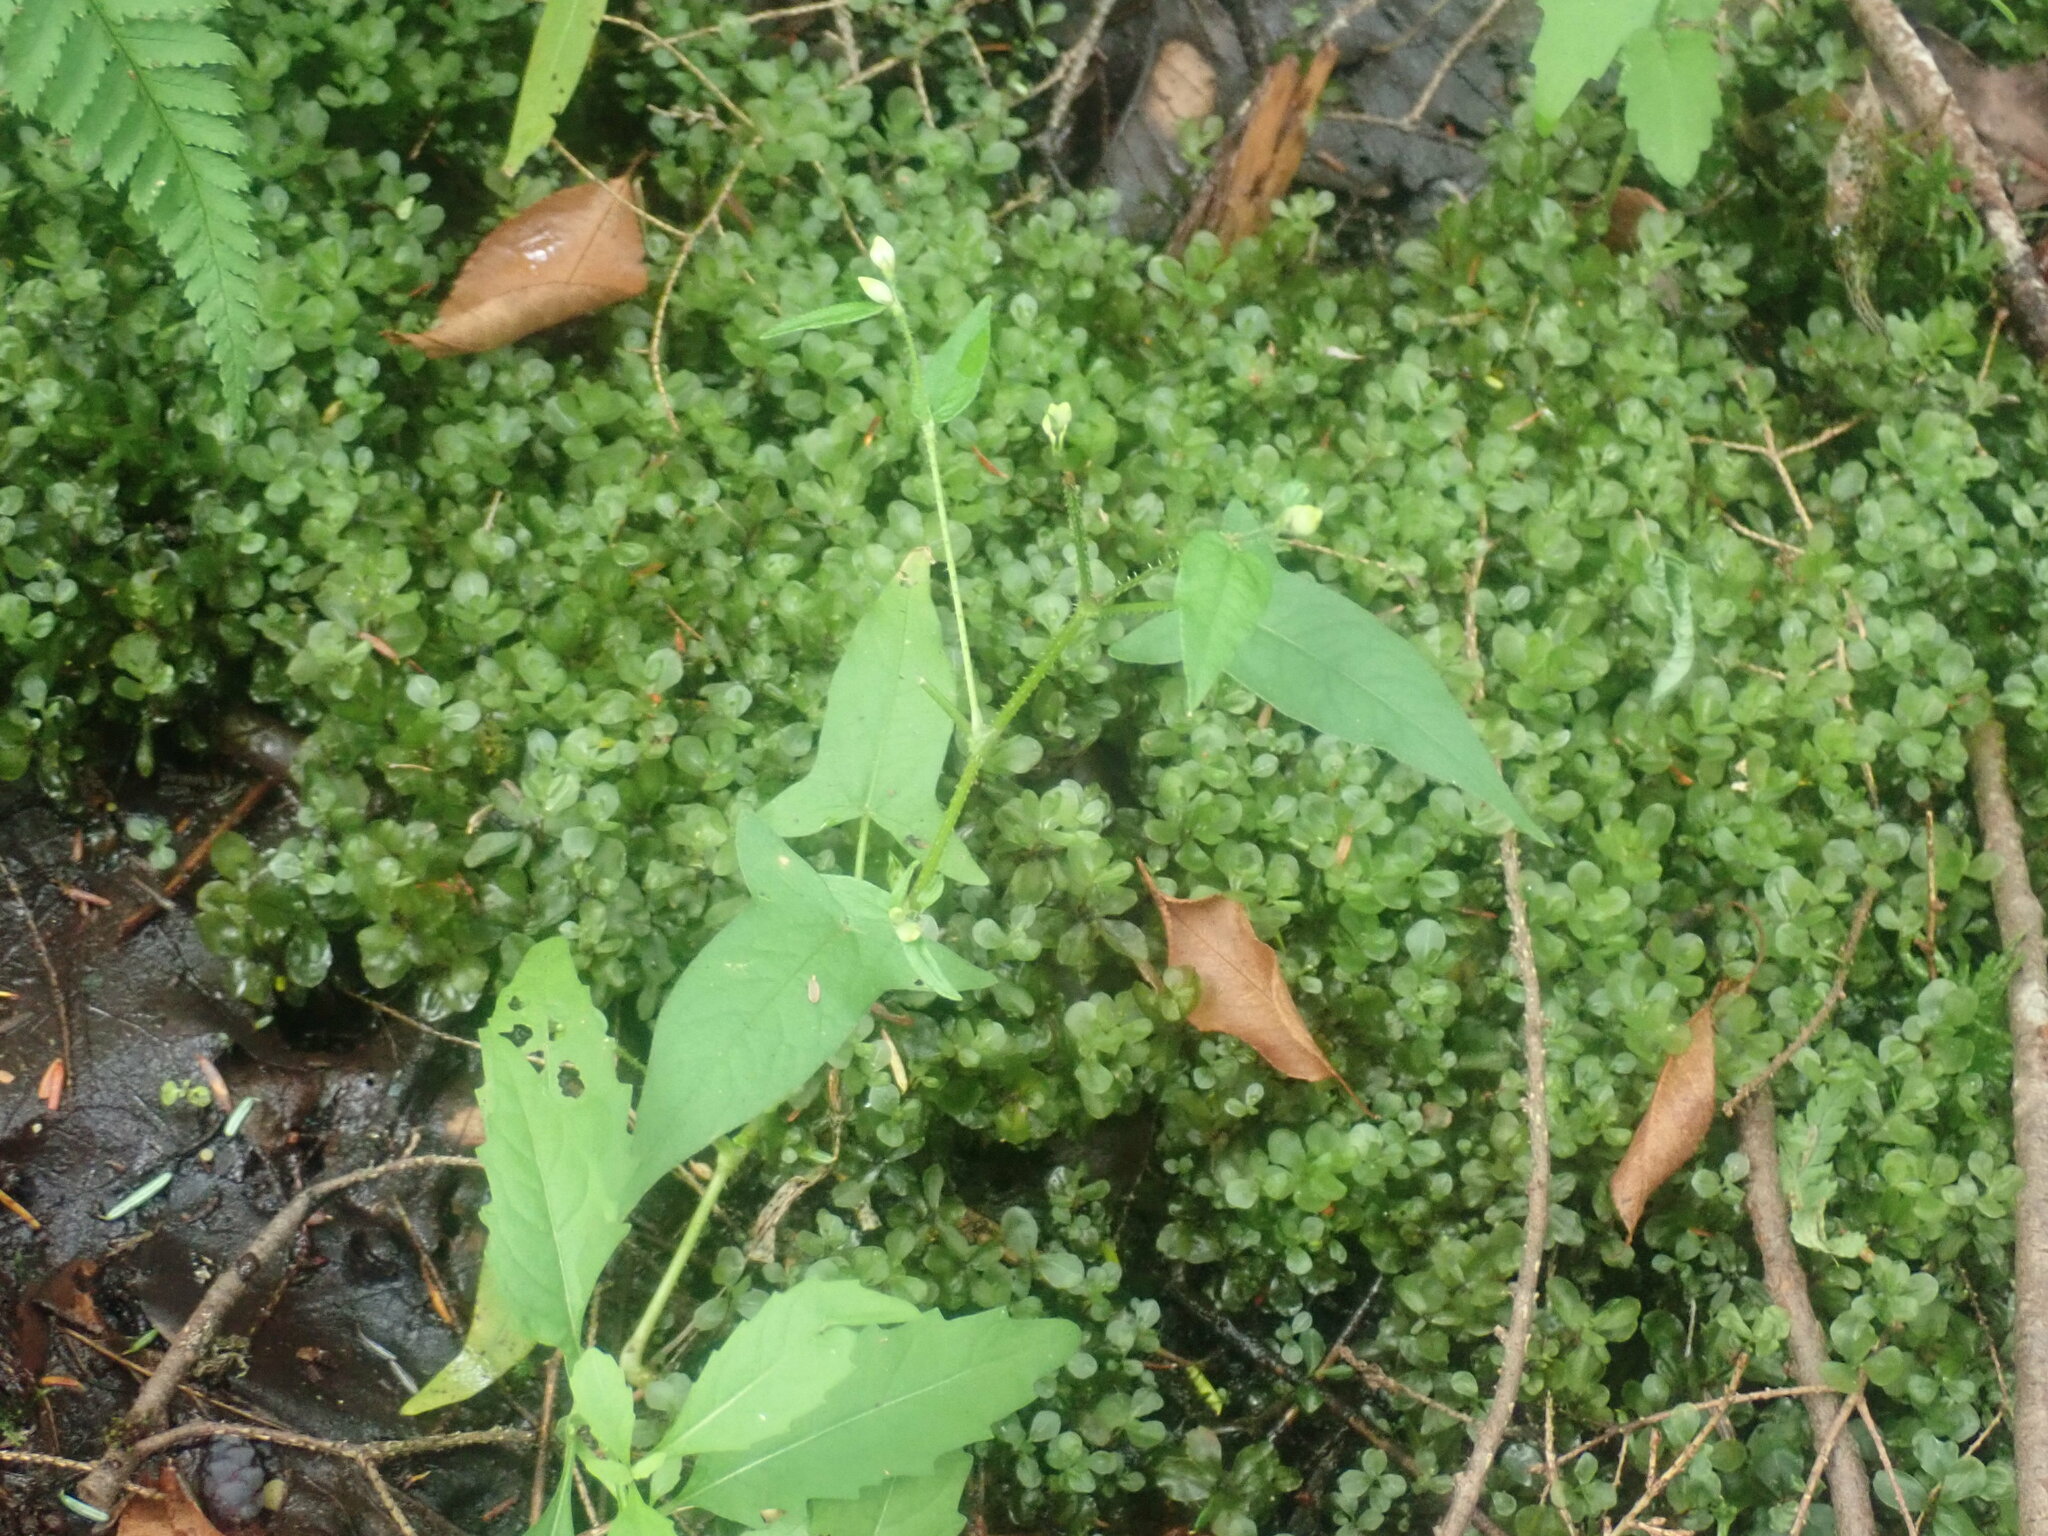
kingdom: Plantae
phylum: Tracheophyta
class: Magnoliopsida
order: Caryophyllales
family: Polygonaceae
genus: Persicaria
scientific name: Persicaria arifolia
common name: Halberd-leaved tear-thumb
